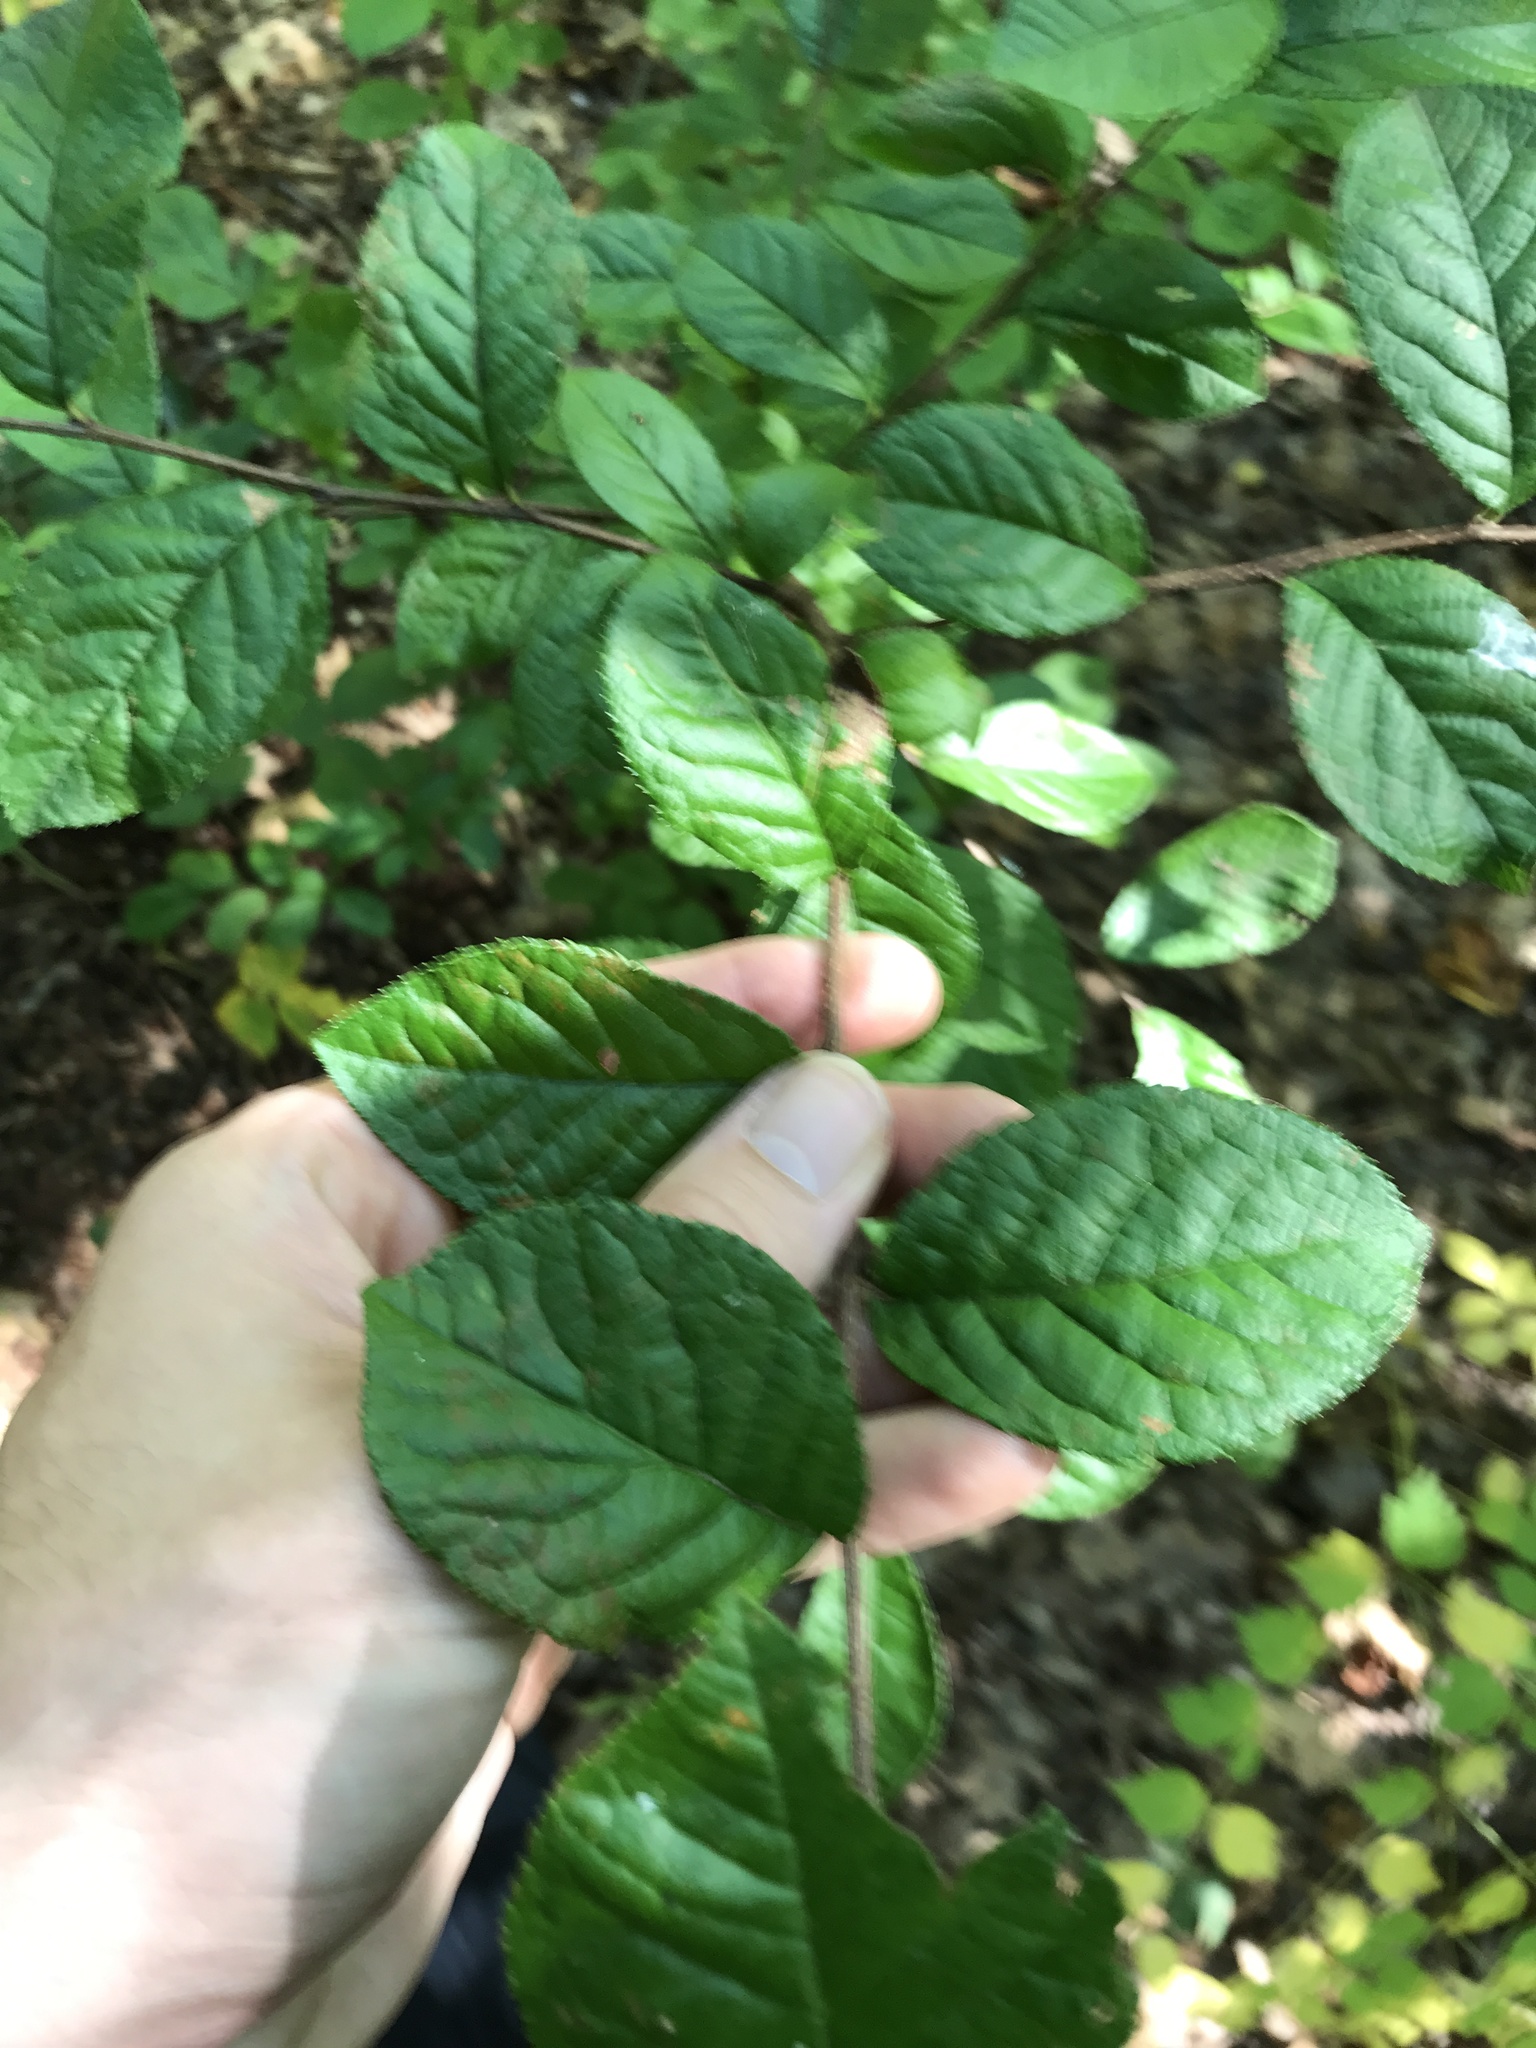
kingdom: Plantae
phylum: Tracheophyta
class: Magnoliopsida
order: Rosales
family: Rosaceae
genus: Pourthiaea
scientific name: Pourthiaea villosa
